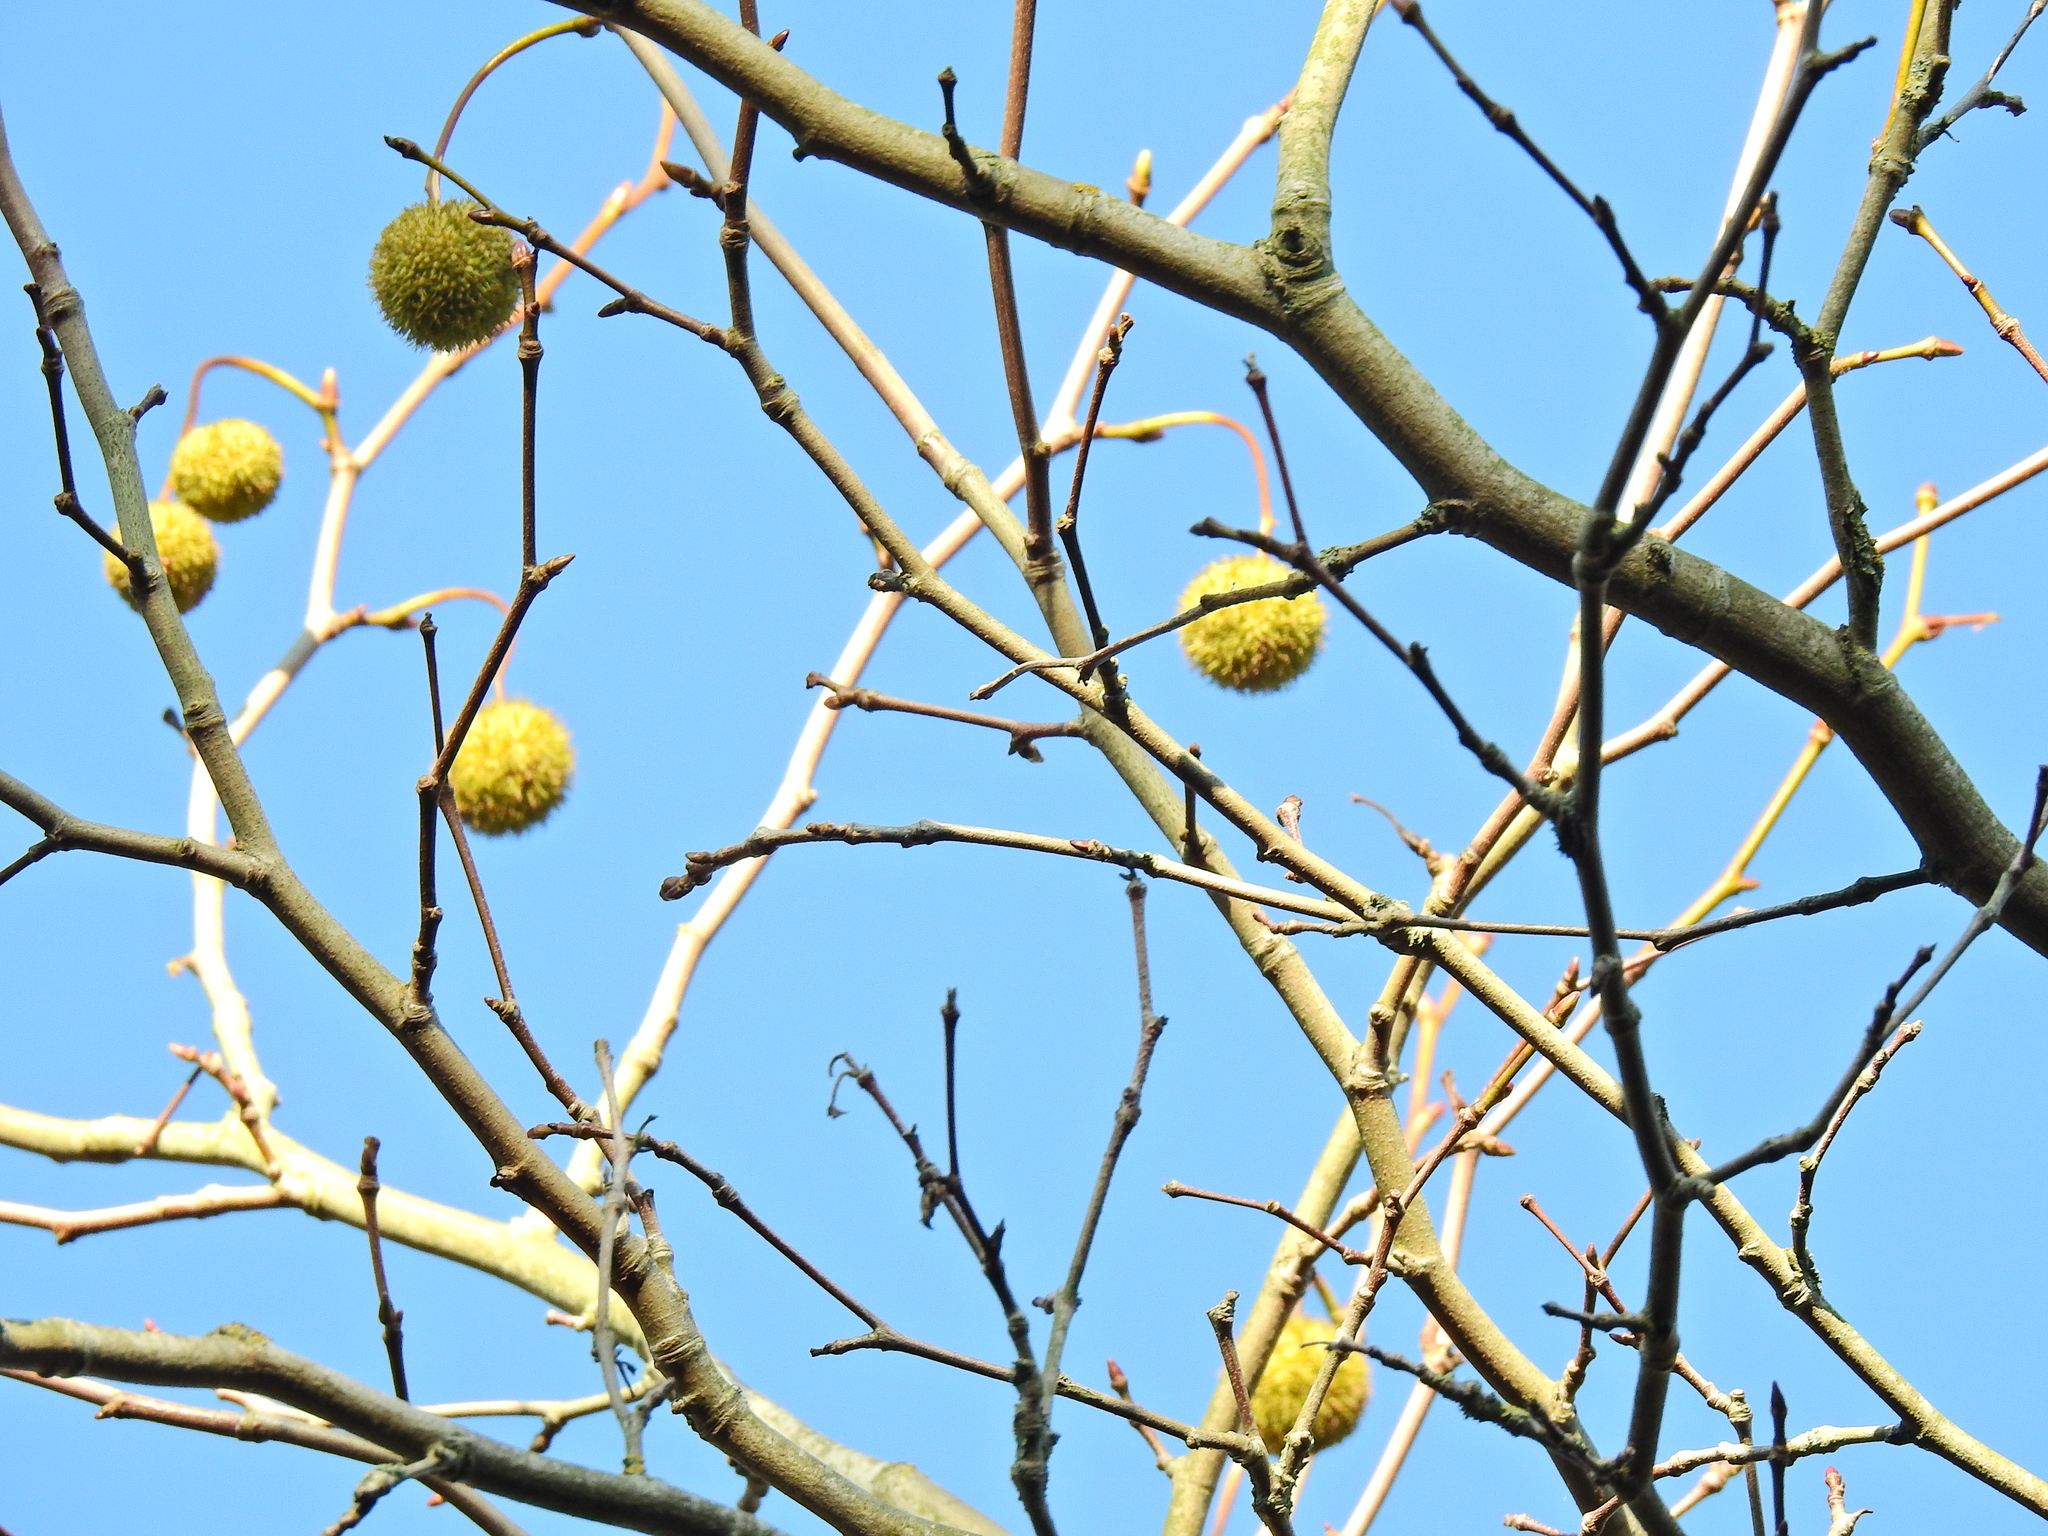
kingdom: Plantae
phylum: Tracheophyta
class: Magnoliopsida
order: Proteales
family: Platanaceae
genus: Platanus
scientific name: Platanus hispanica
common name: London plane
